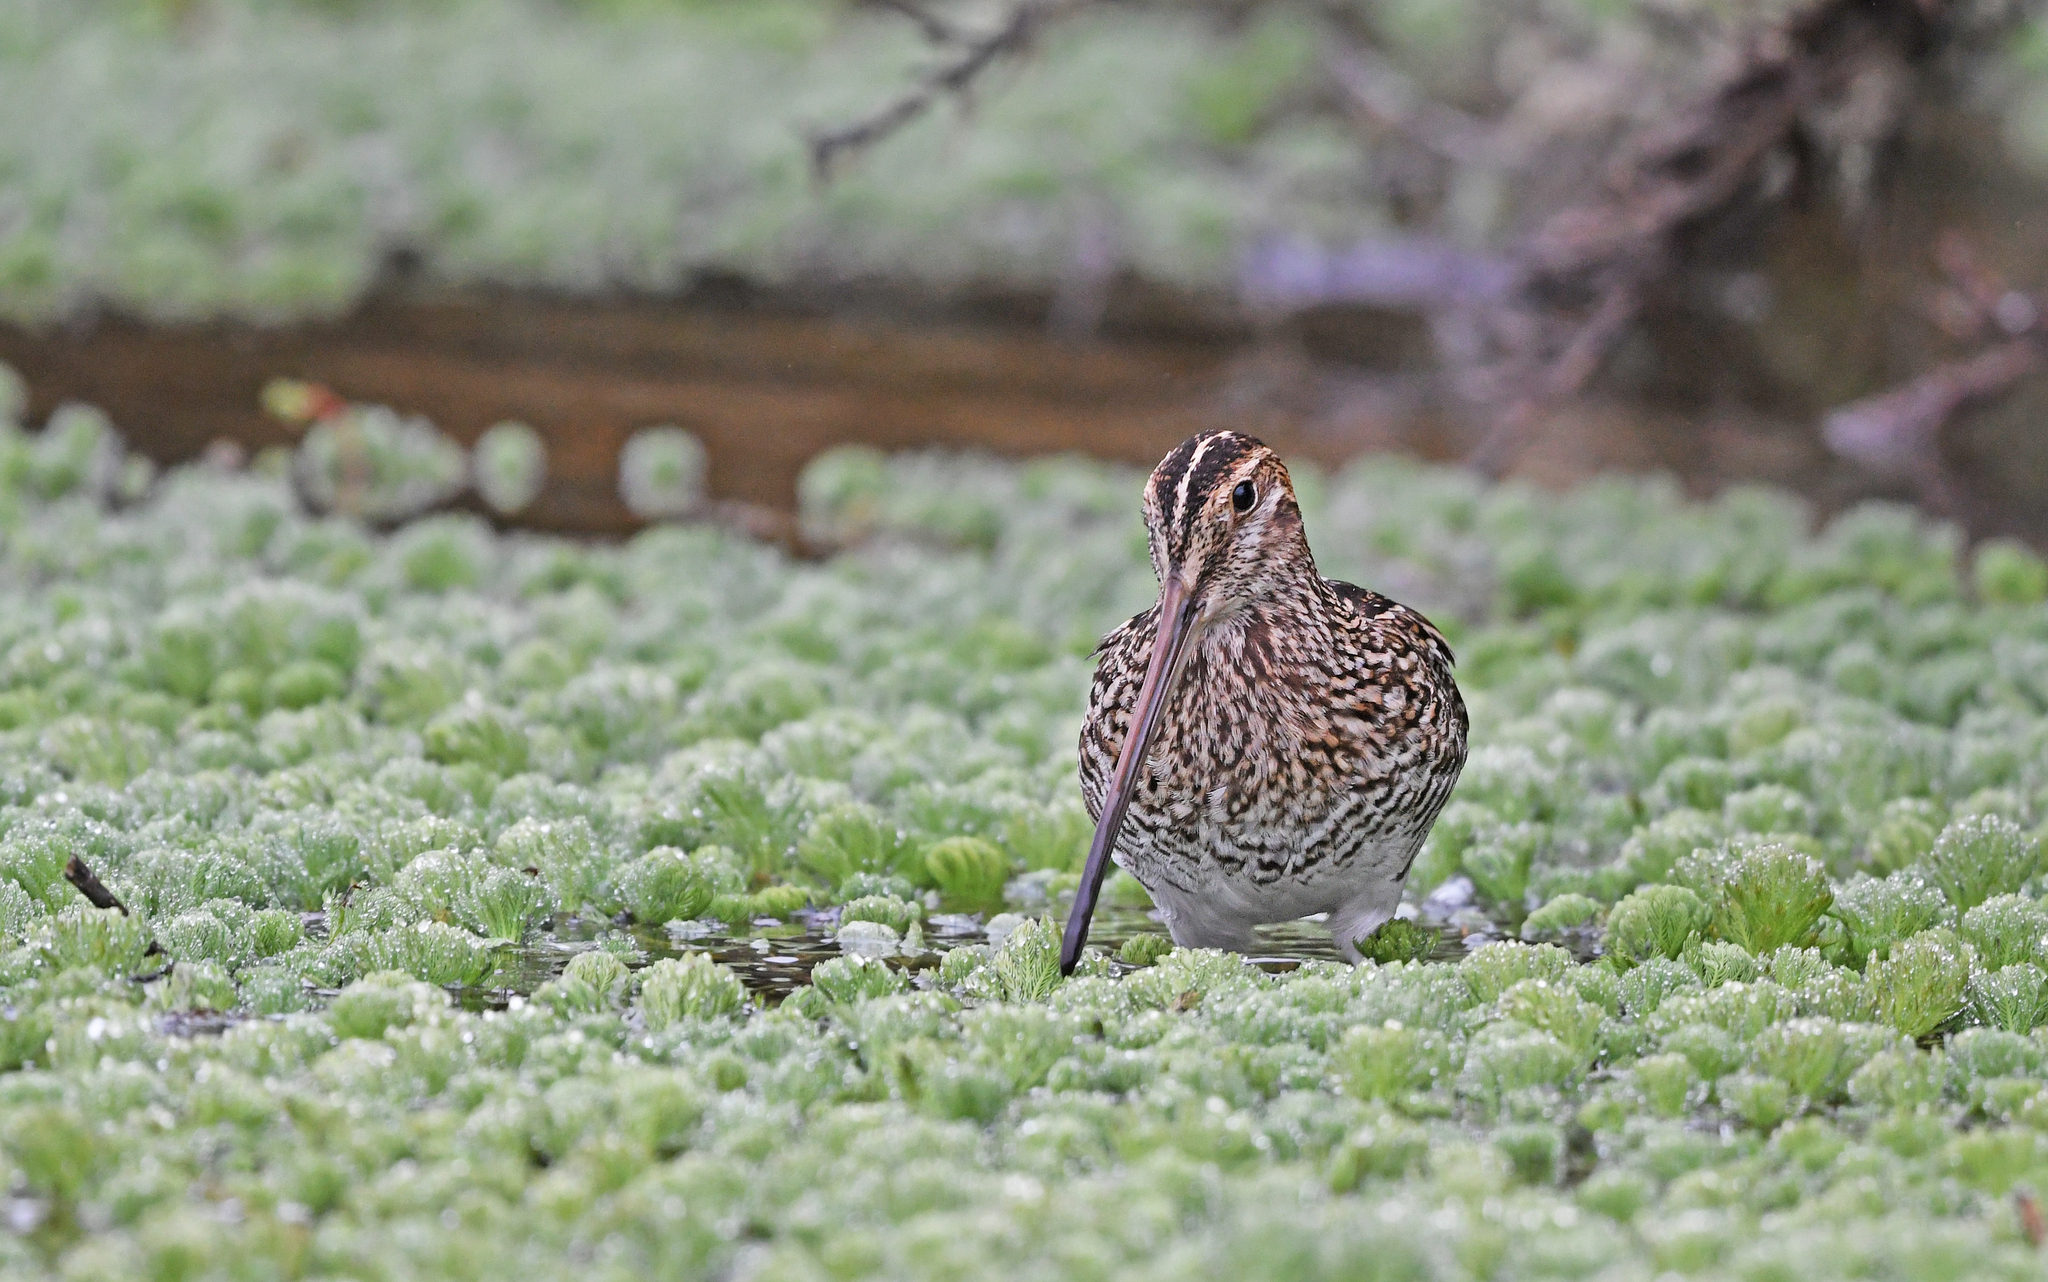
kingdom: Animalia
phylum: Chordata
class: Aves
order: Charadriiformes
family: Scolopacidae
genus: Gallinago
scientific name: Gallinago nobilis
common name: Noble snipe
